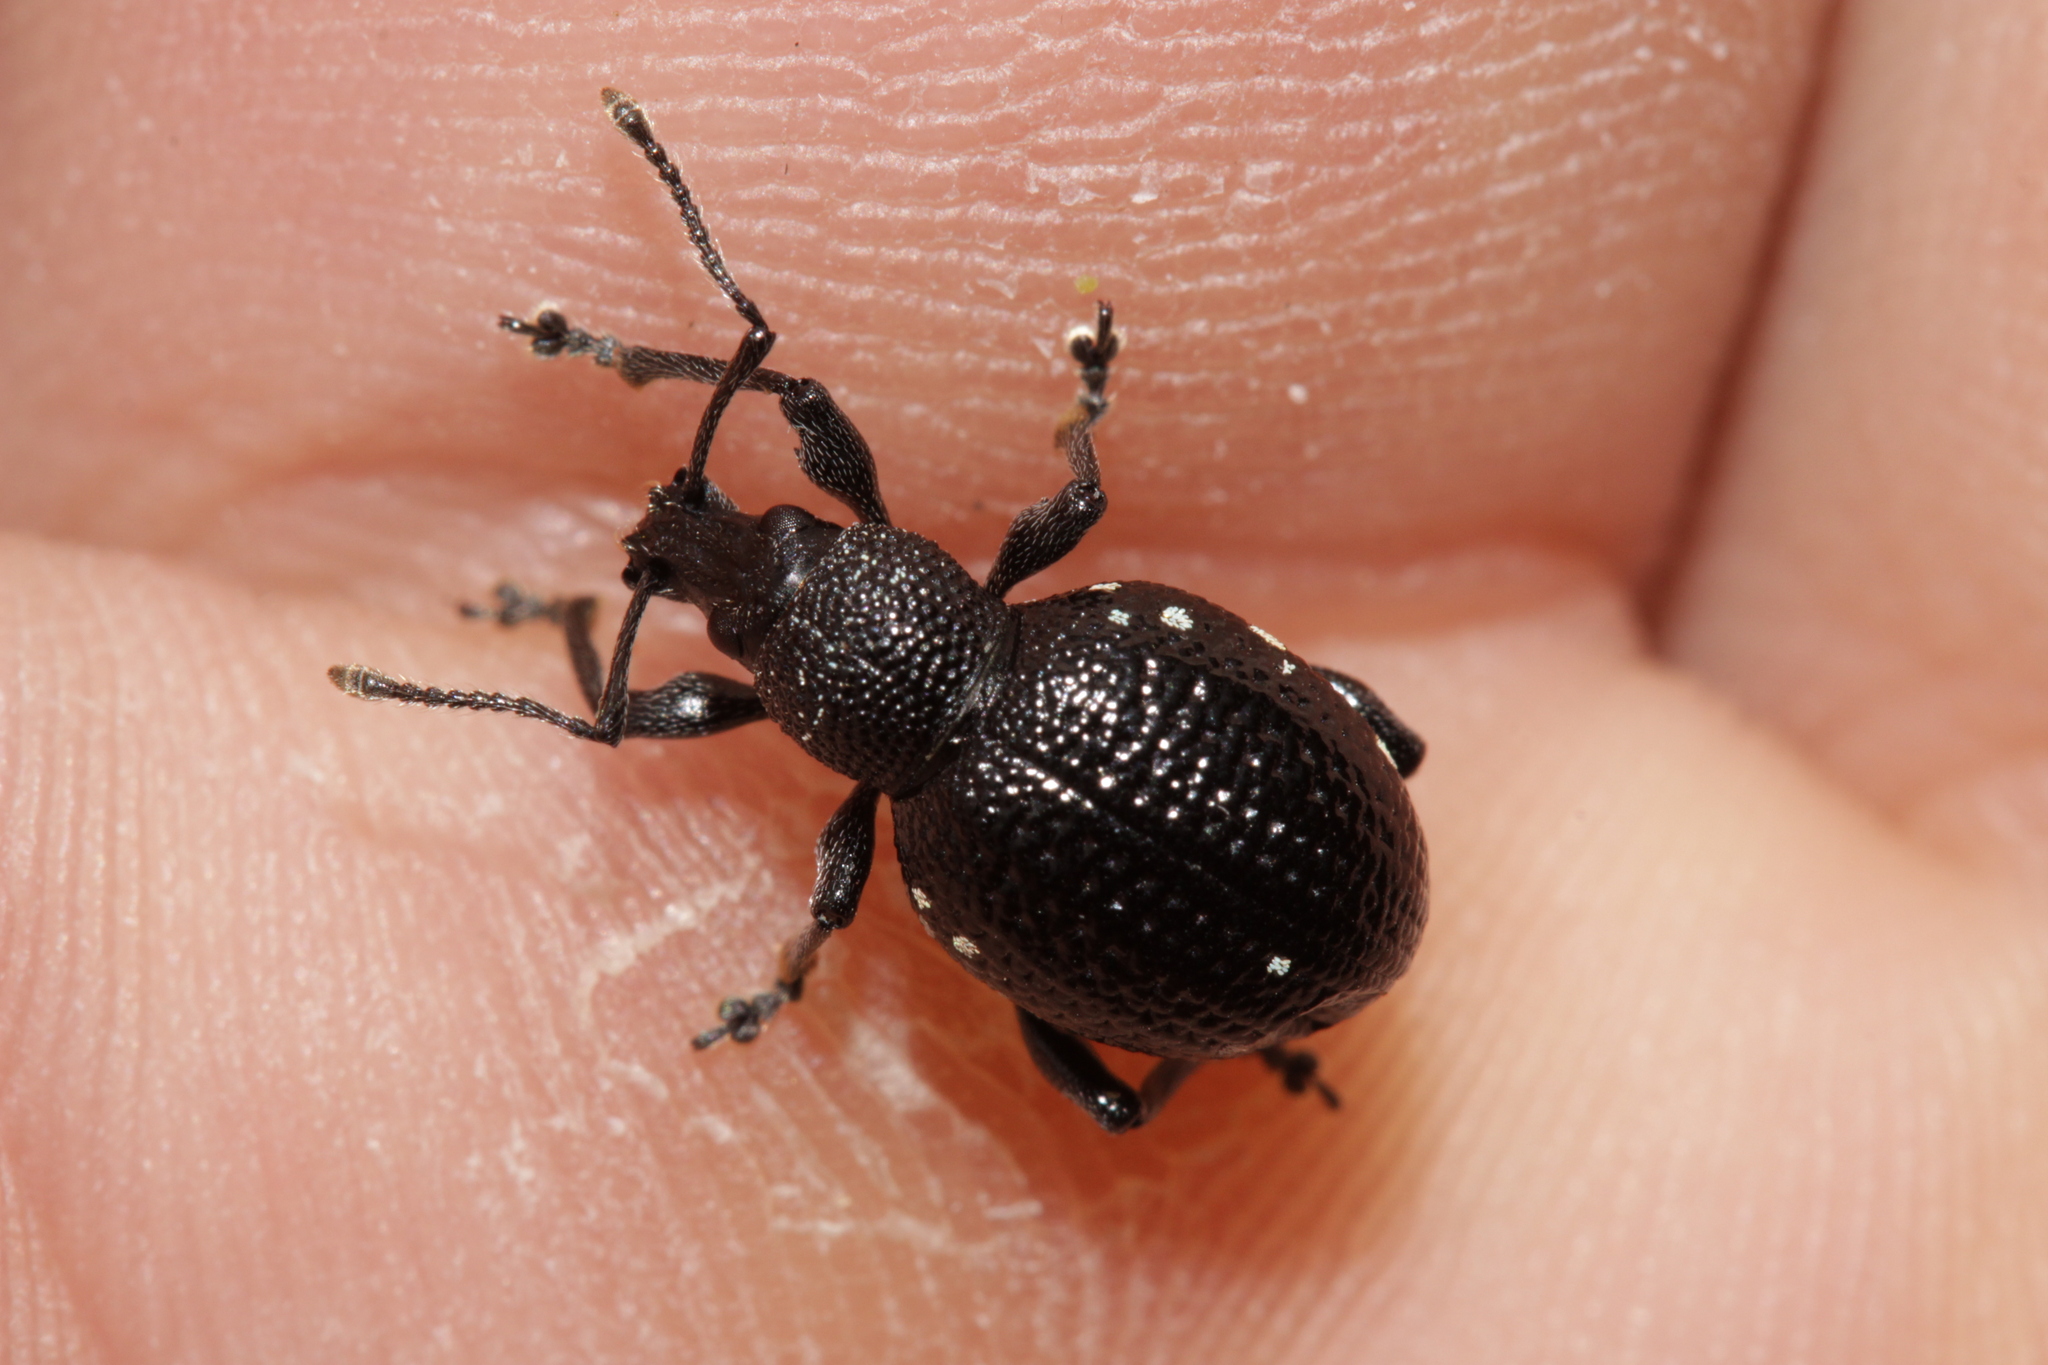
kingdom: Animalia
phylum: Arthropoda
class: Insecta
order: Coleoptera
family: Curculionidae
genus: Otiorhynchus
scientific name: Otiorhynchus gemmatus
